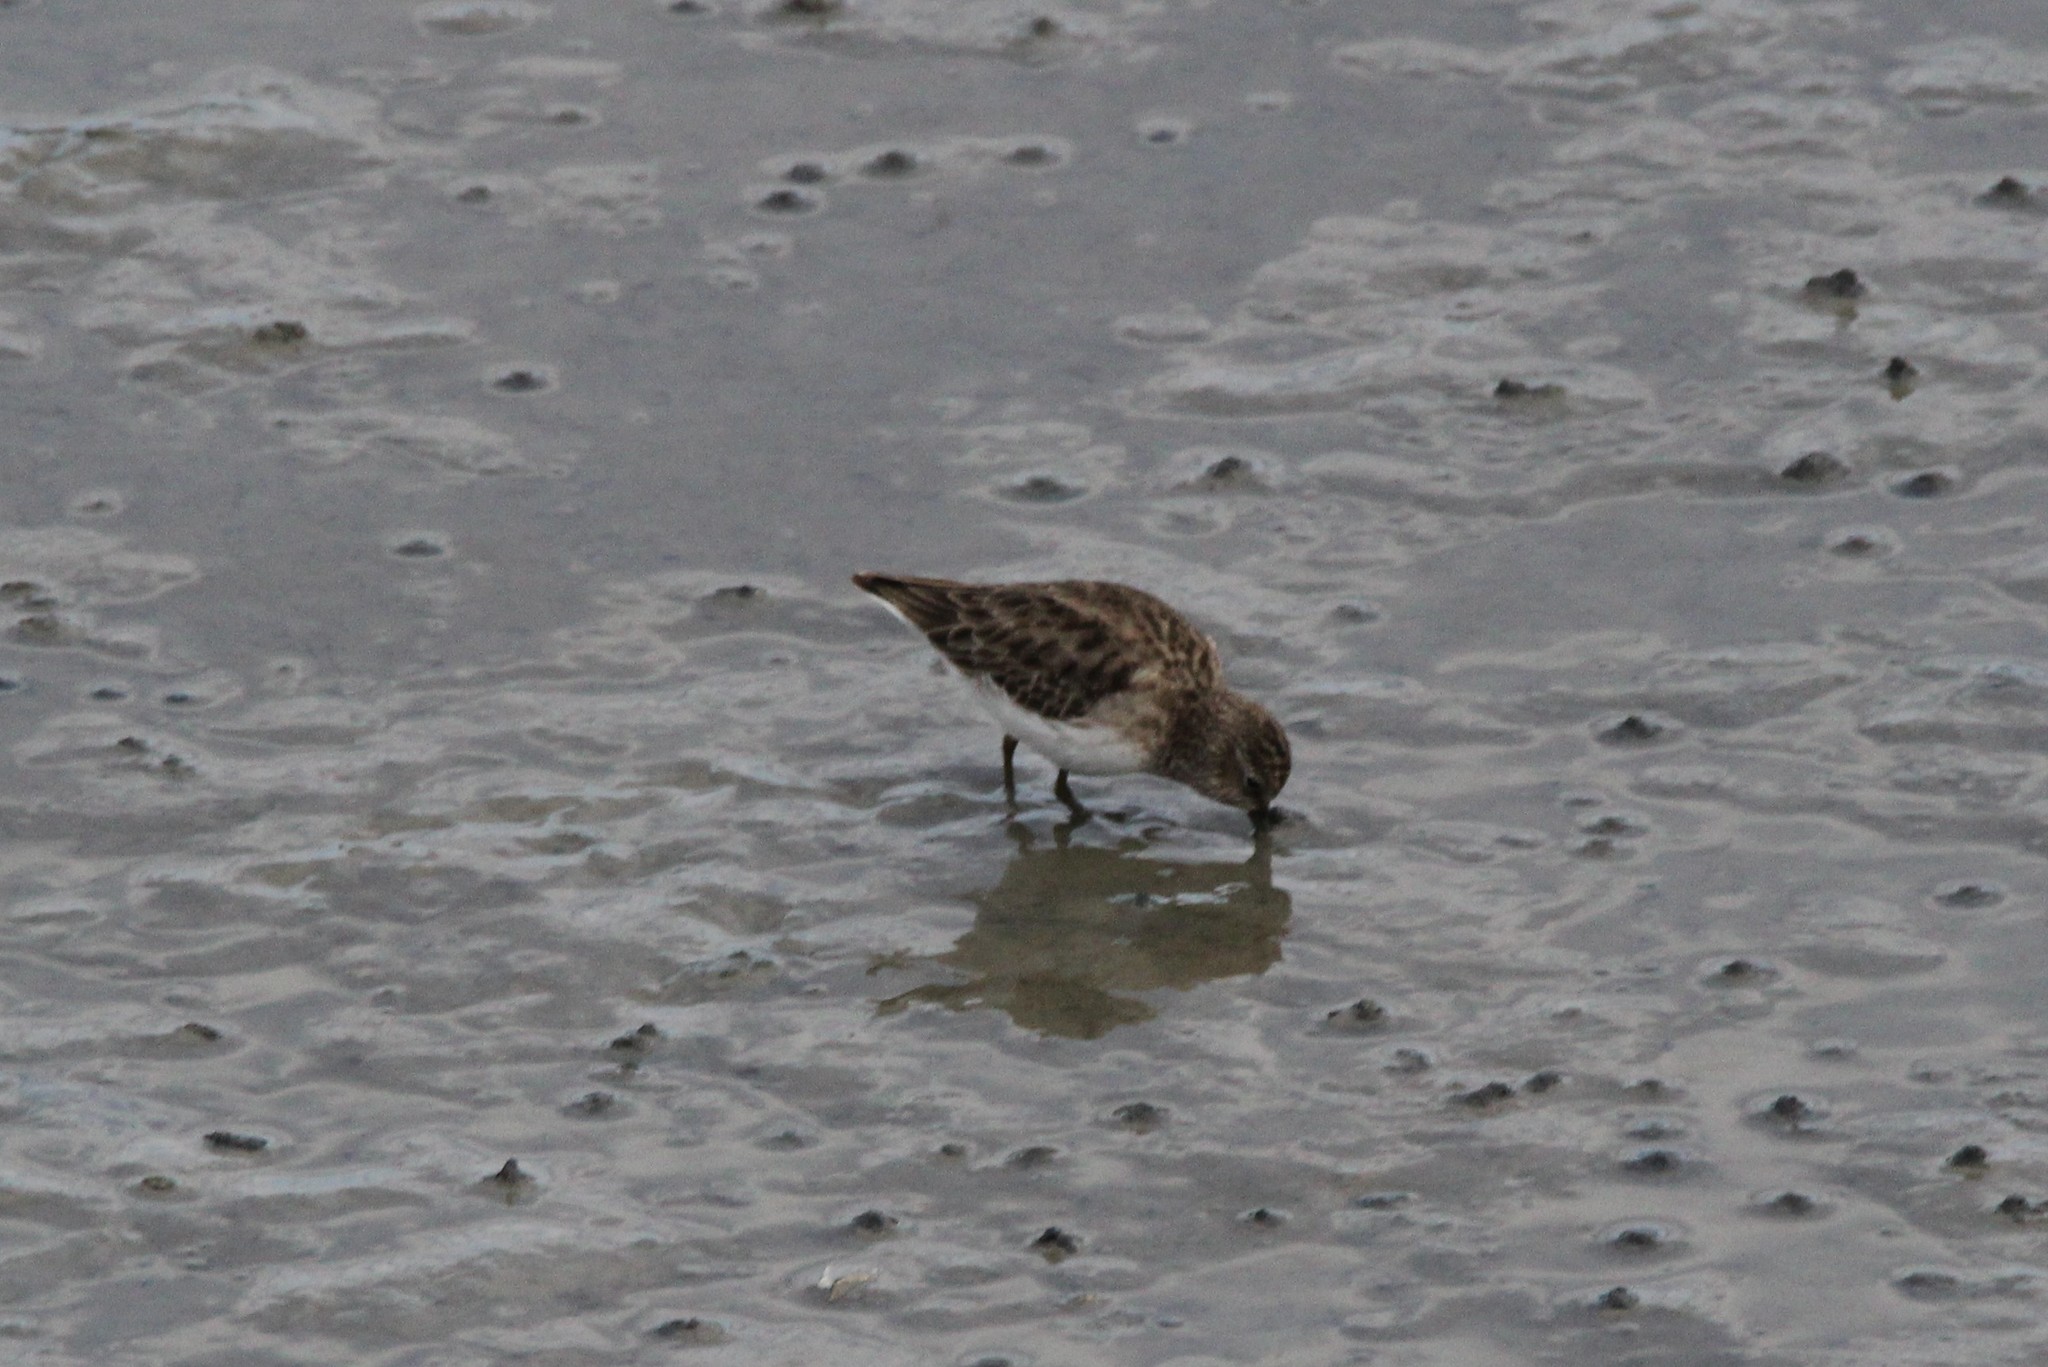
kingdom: Animalia
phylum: Chordata
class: Aves
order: Charadriiformes
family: Scolopacidae
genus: Calidris
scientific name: Calidris minutilla
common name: Least sandpiper
